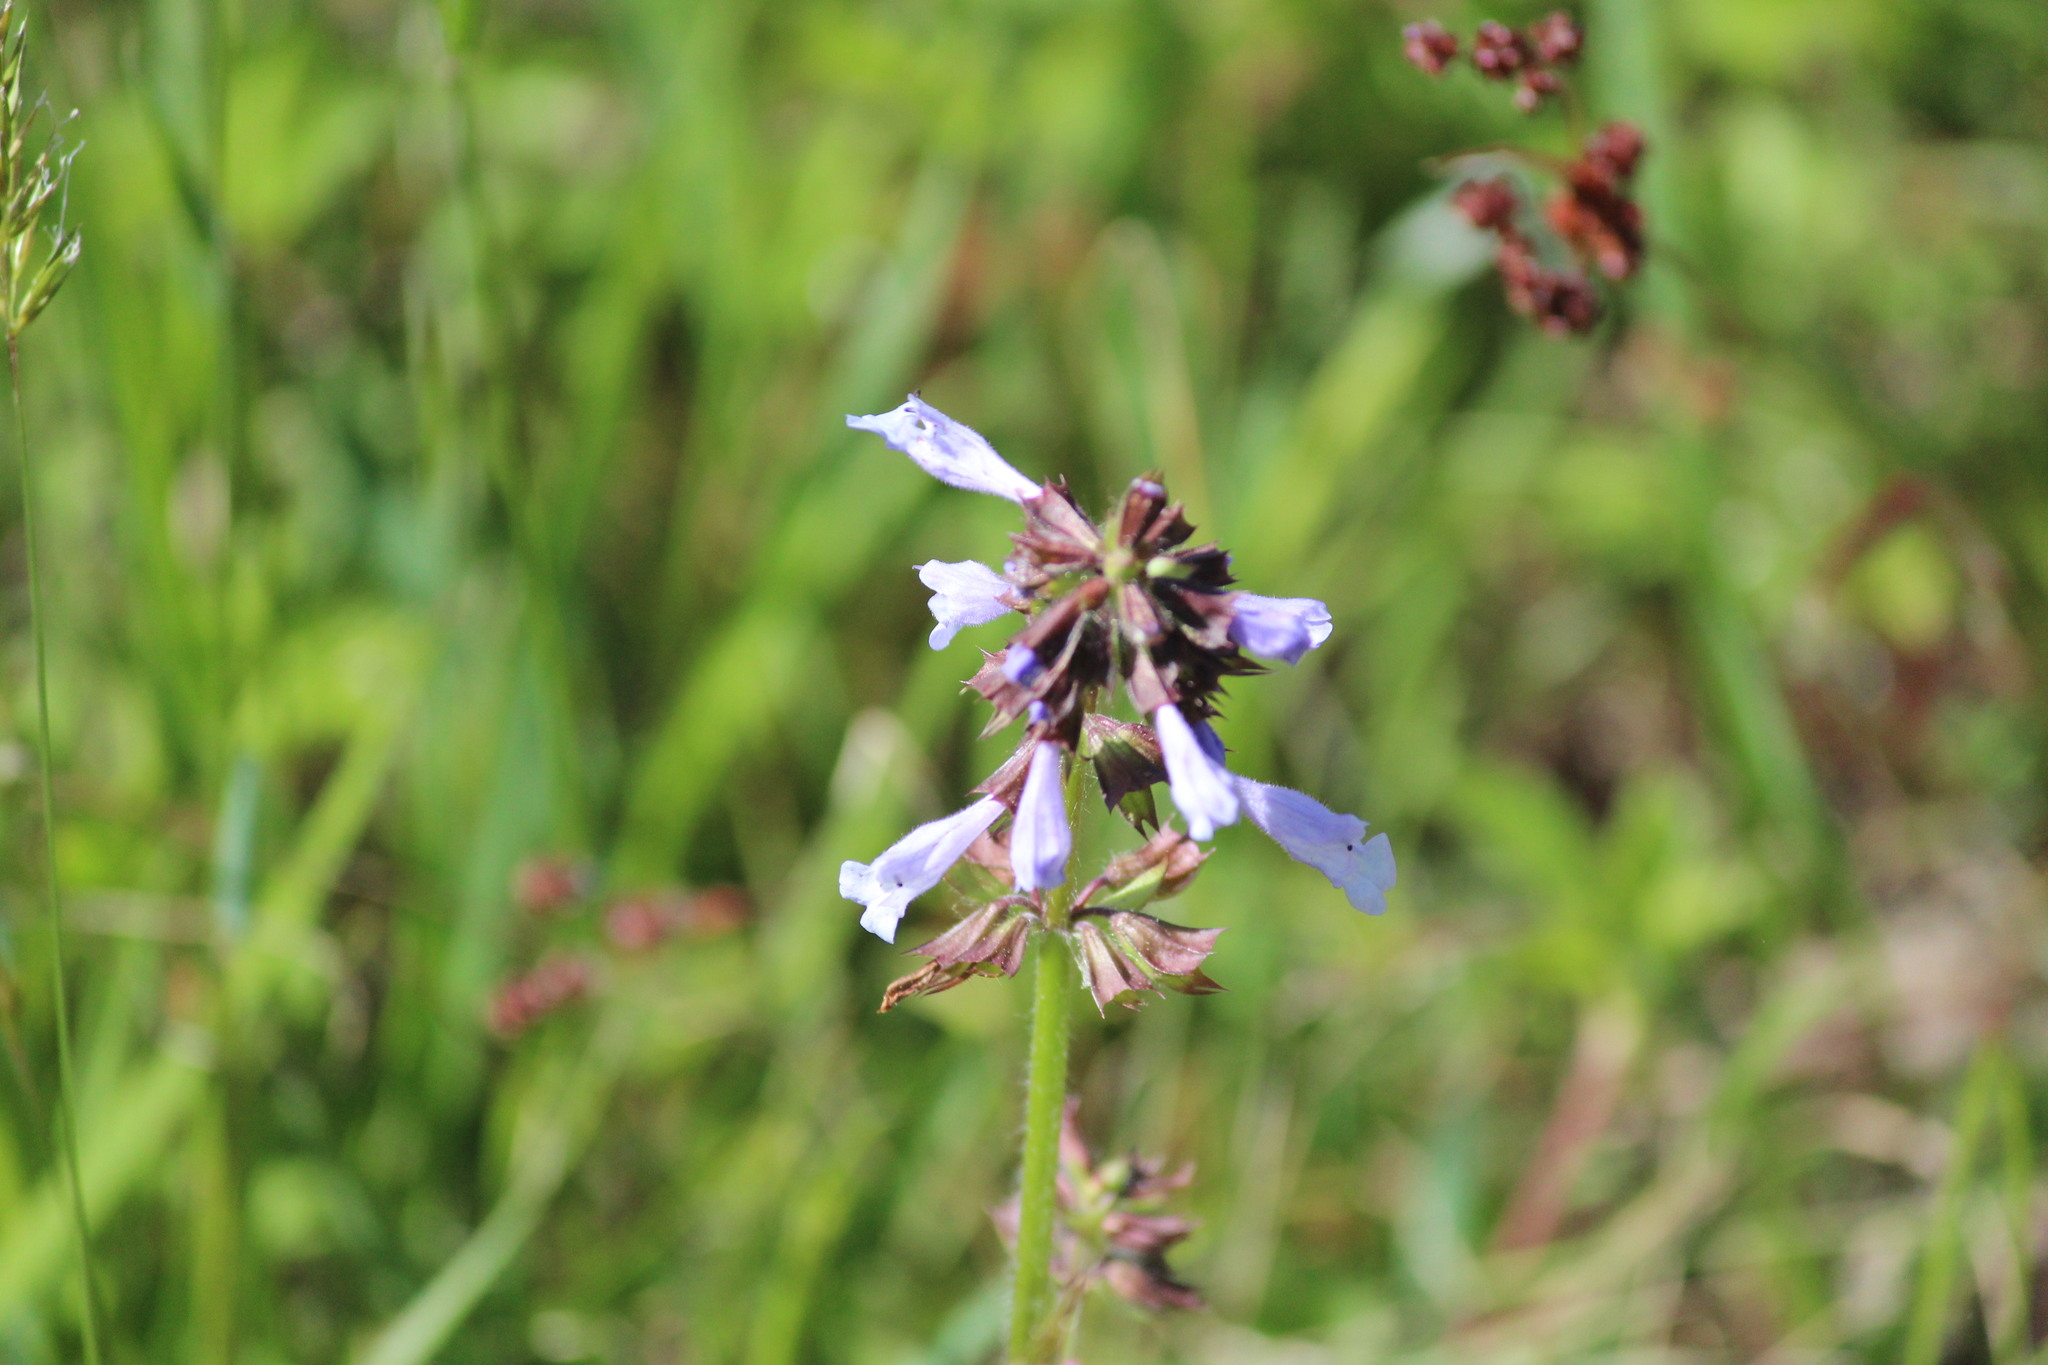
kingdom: Plantae
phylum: Tracheophyta
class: Magnoliopsida
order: Lamiales
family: Lamiaceae
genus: Salvia
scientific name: Salvia lyrata
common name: Cancerweed
